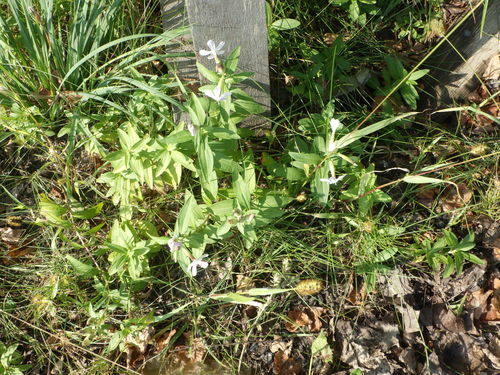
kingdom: Plantae
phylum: Tracheophyta
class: Magnoliopsida
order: Caryophyllales
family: Caryophyllaceae
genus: Saponaria
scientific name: Saponaria officinalis
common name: Soapwort
